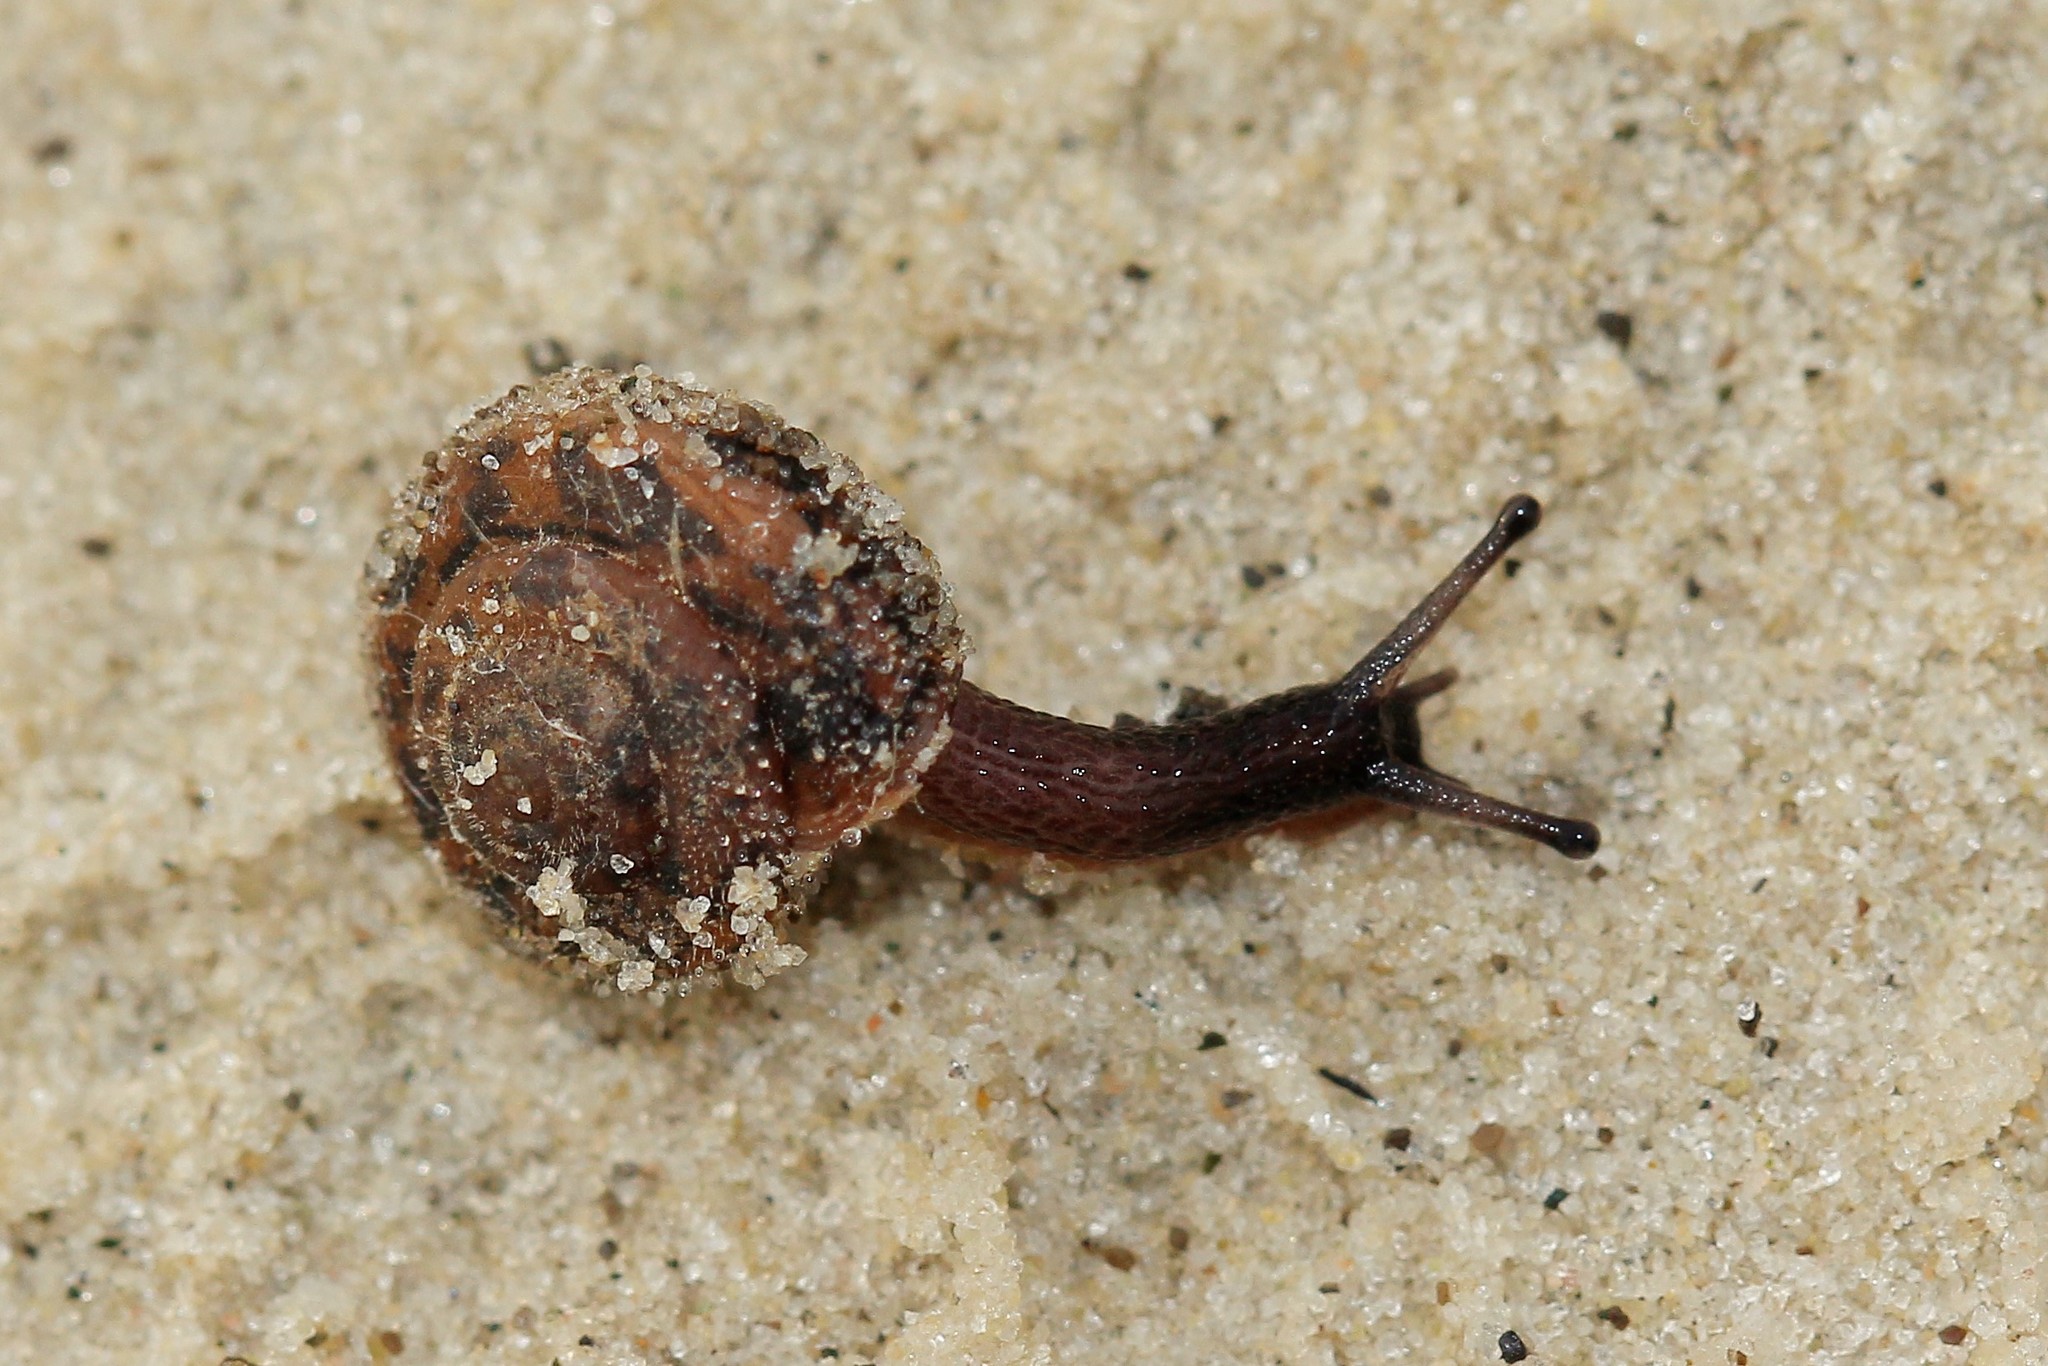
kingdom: Animalia
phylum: Mollusca
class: Gastropoda
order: Stylommatophora
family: Hygromiidae
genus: Trochulus
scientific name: Trochulus hispidus
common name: Hairy snail
